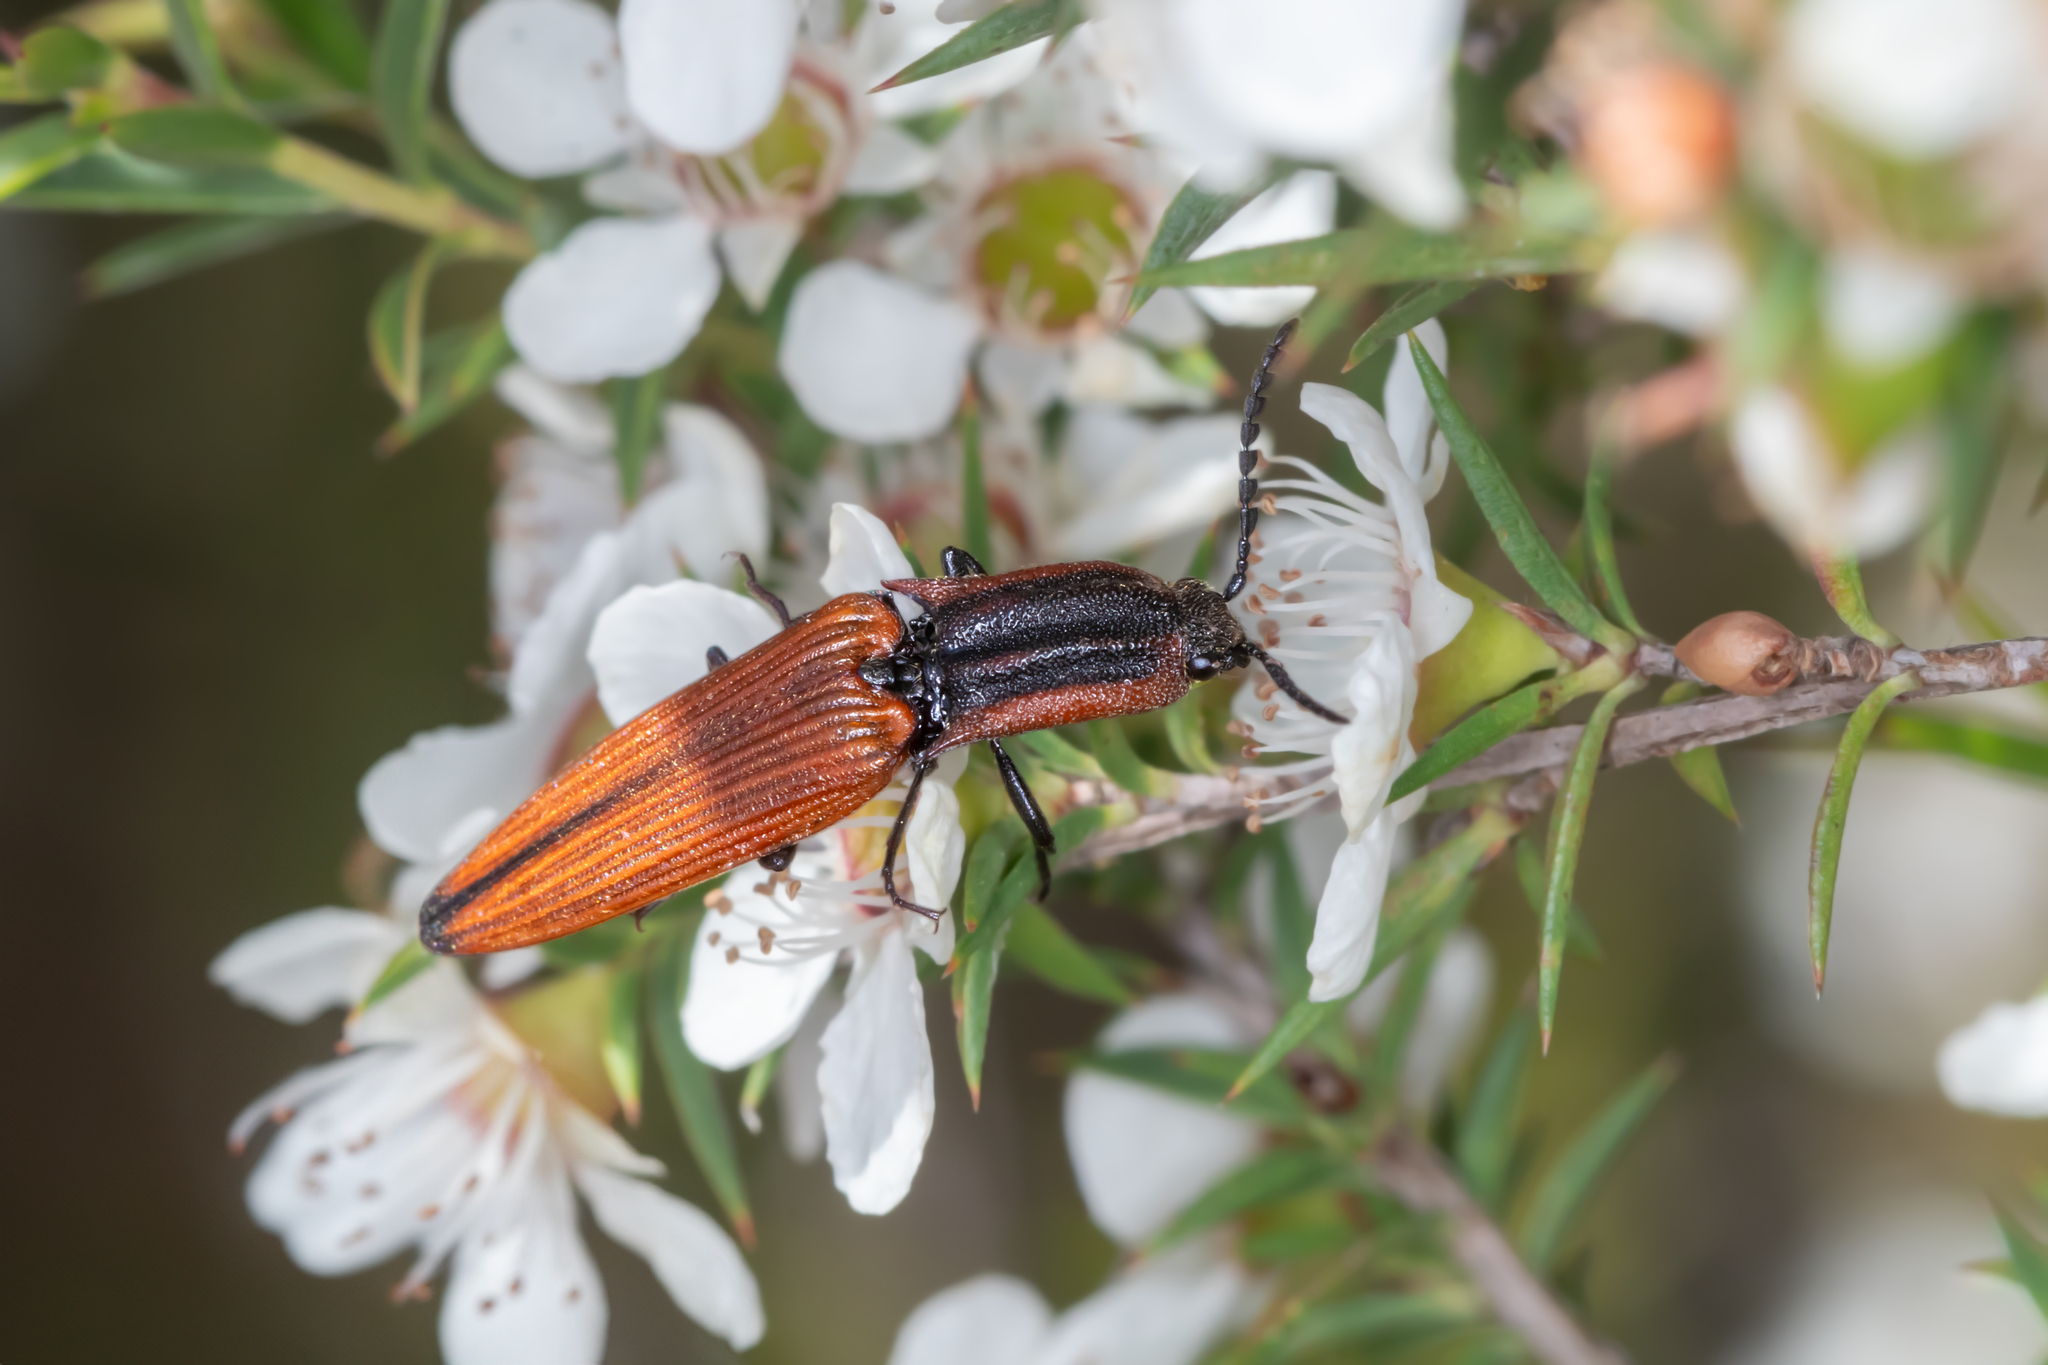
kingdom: Animalia
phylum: Arthropoda
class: Insecta
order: Coleoptera
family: Elateridae
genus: Elatichrosis
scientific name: Elatichrosis
